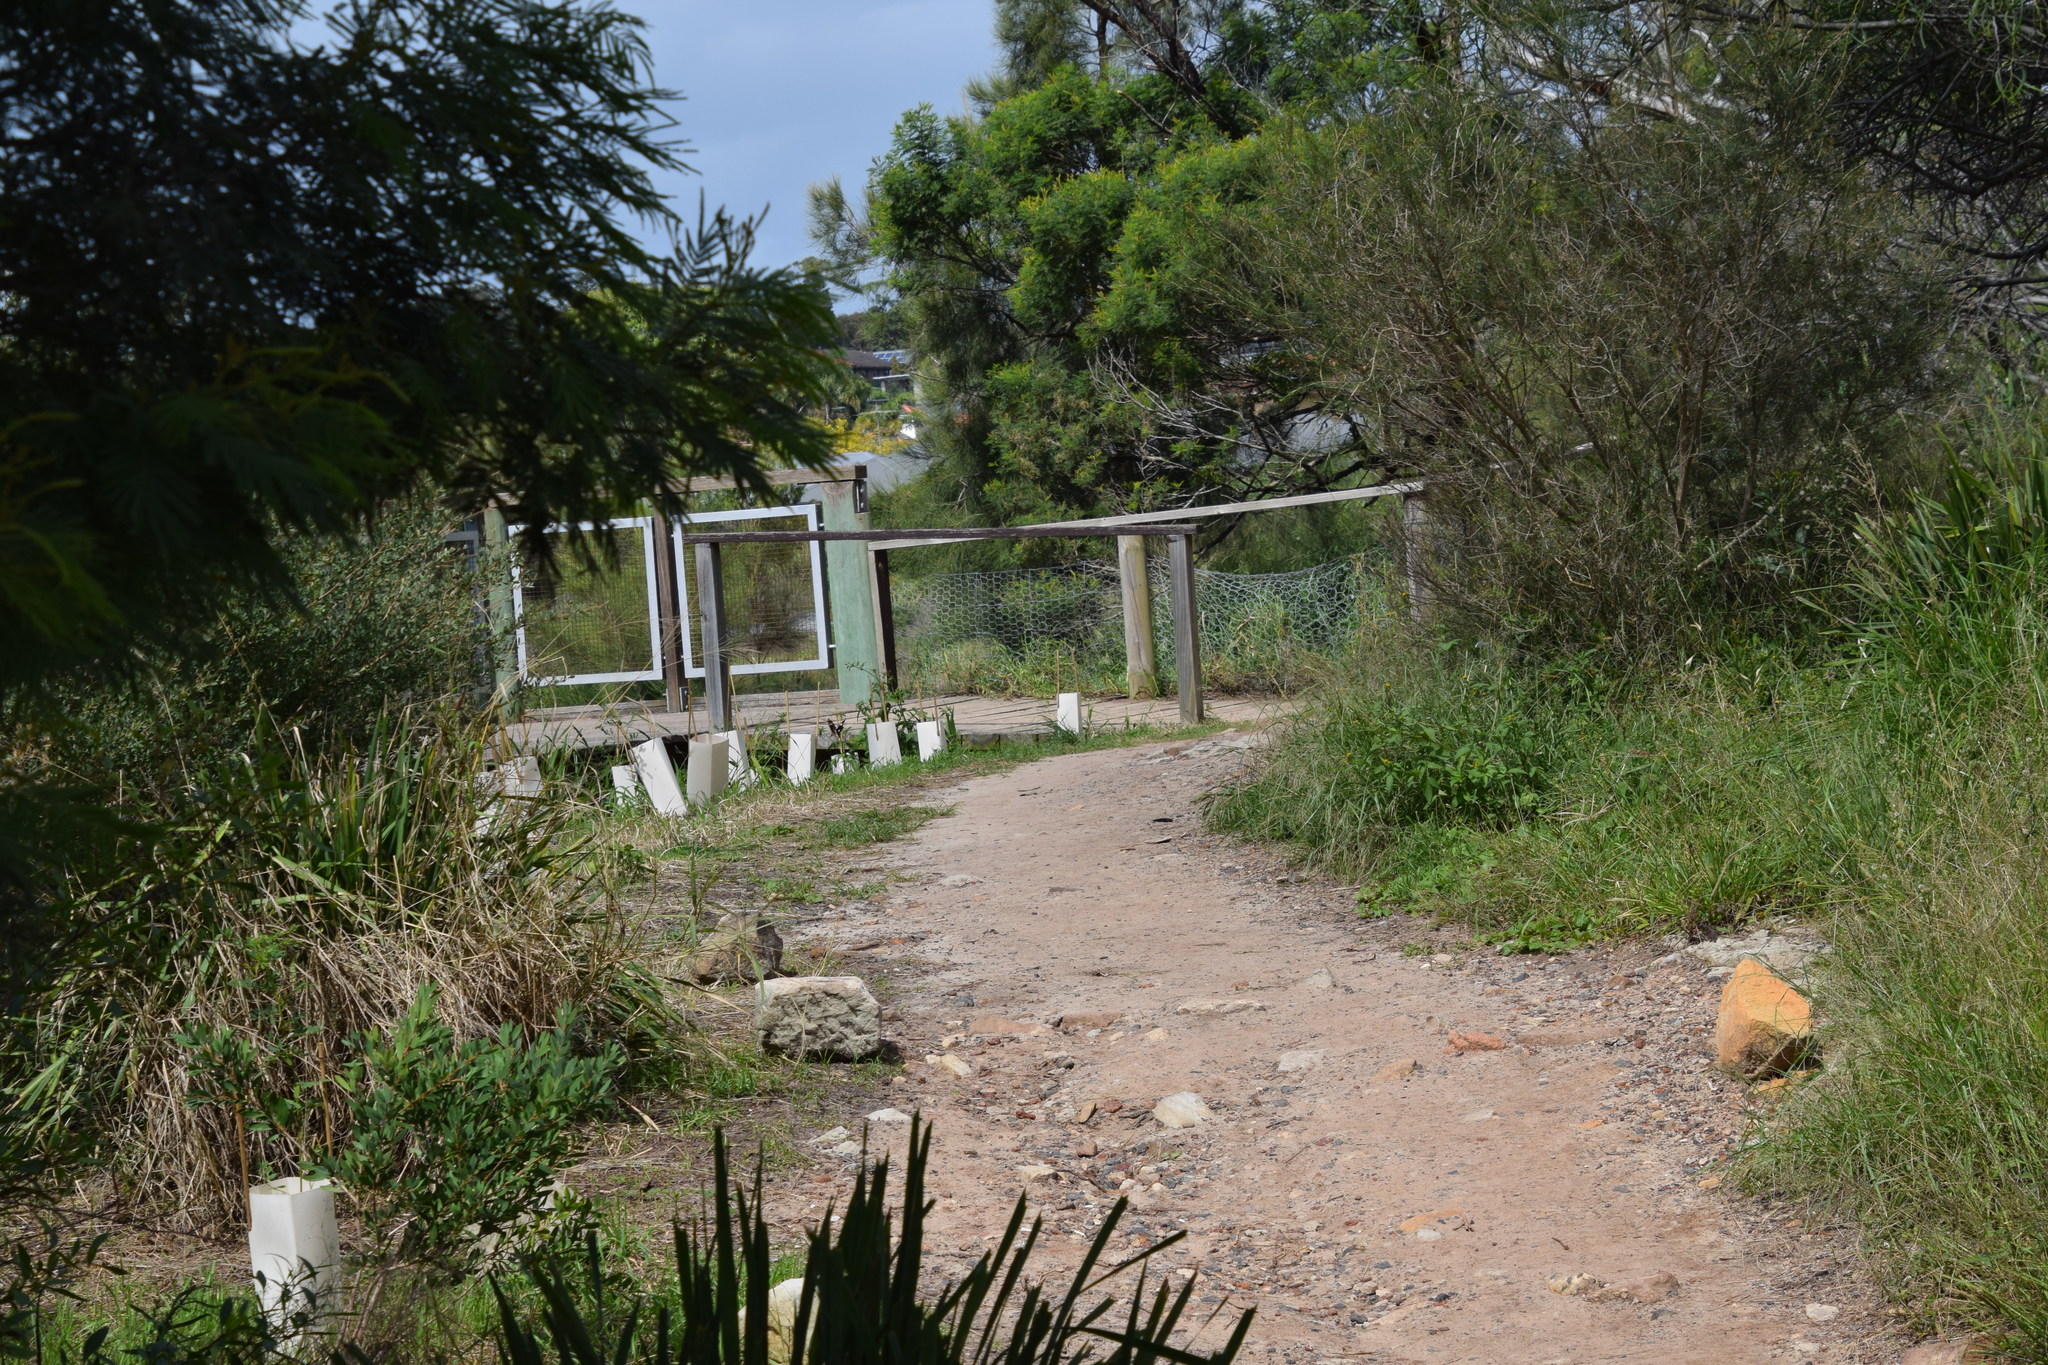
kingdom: Animalia
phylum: Arthropoda
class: Insecta
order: Lepidoptera
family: Nymphalidae
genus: Hypolimnas
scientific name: Hypolimnas bolina
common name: Great eggfly
